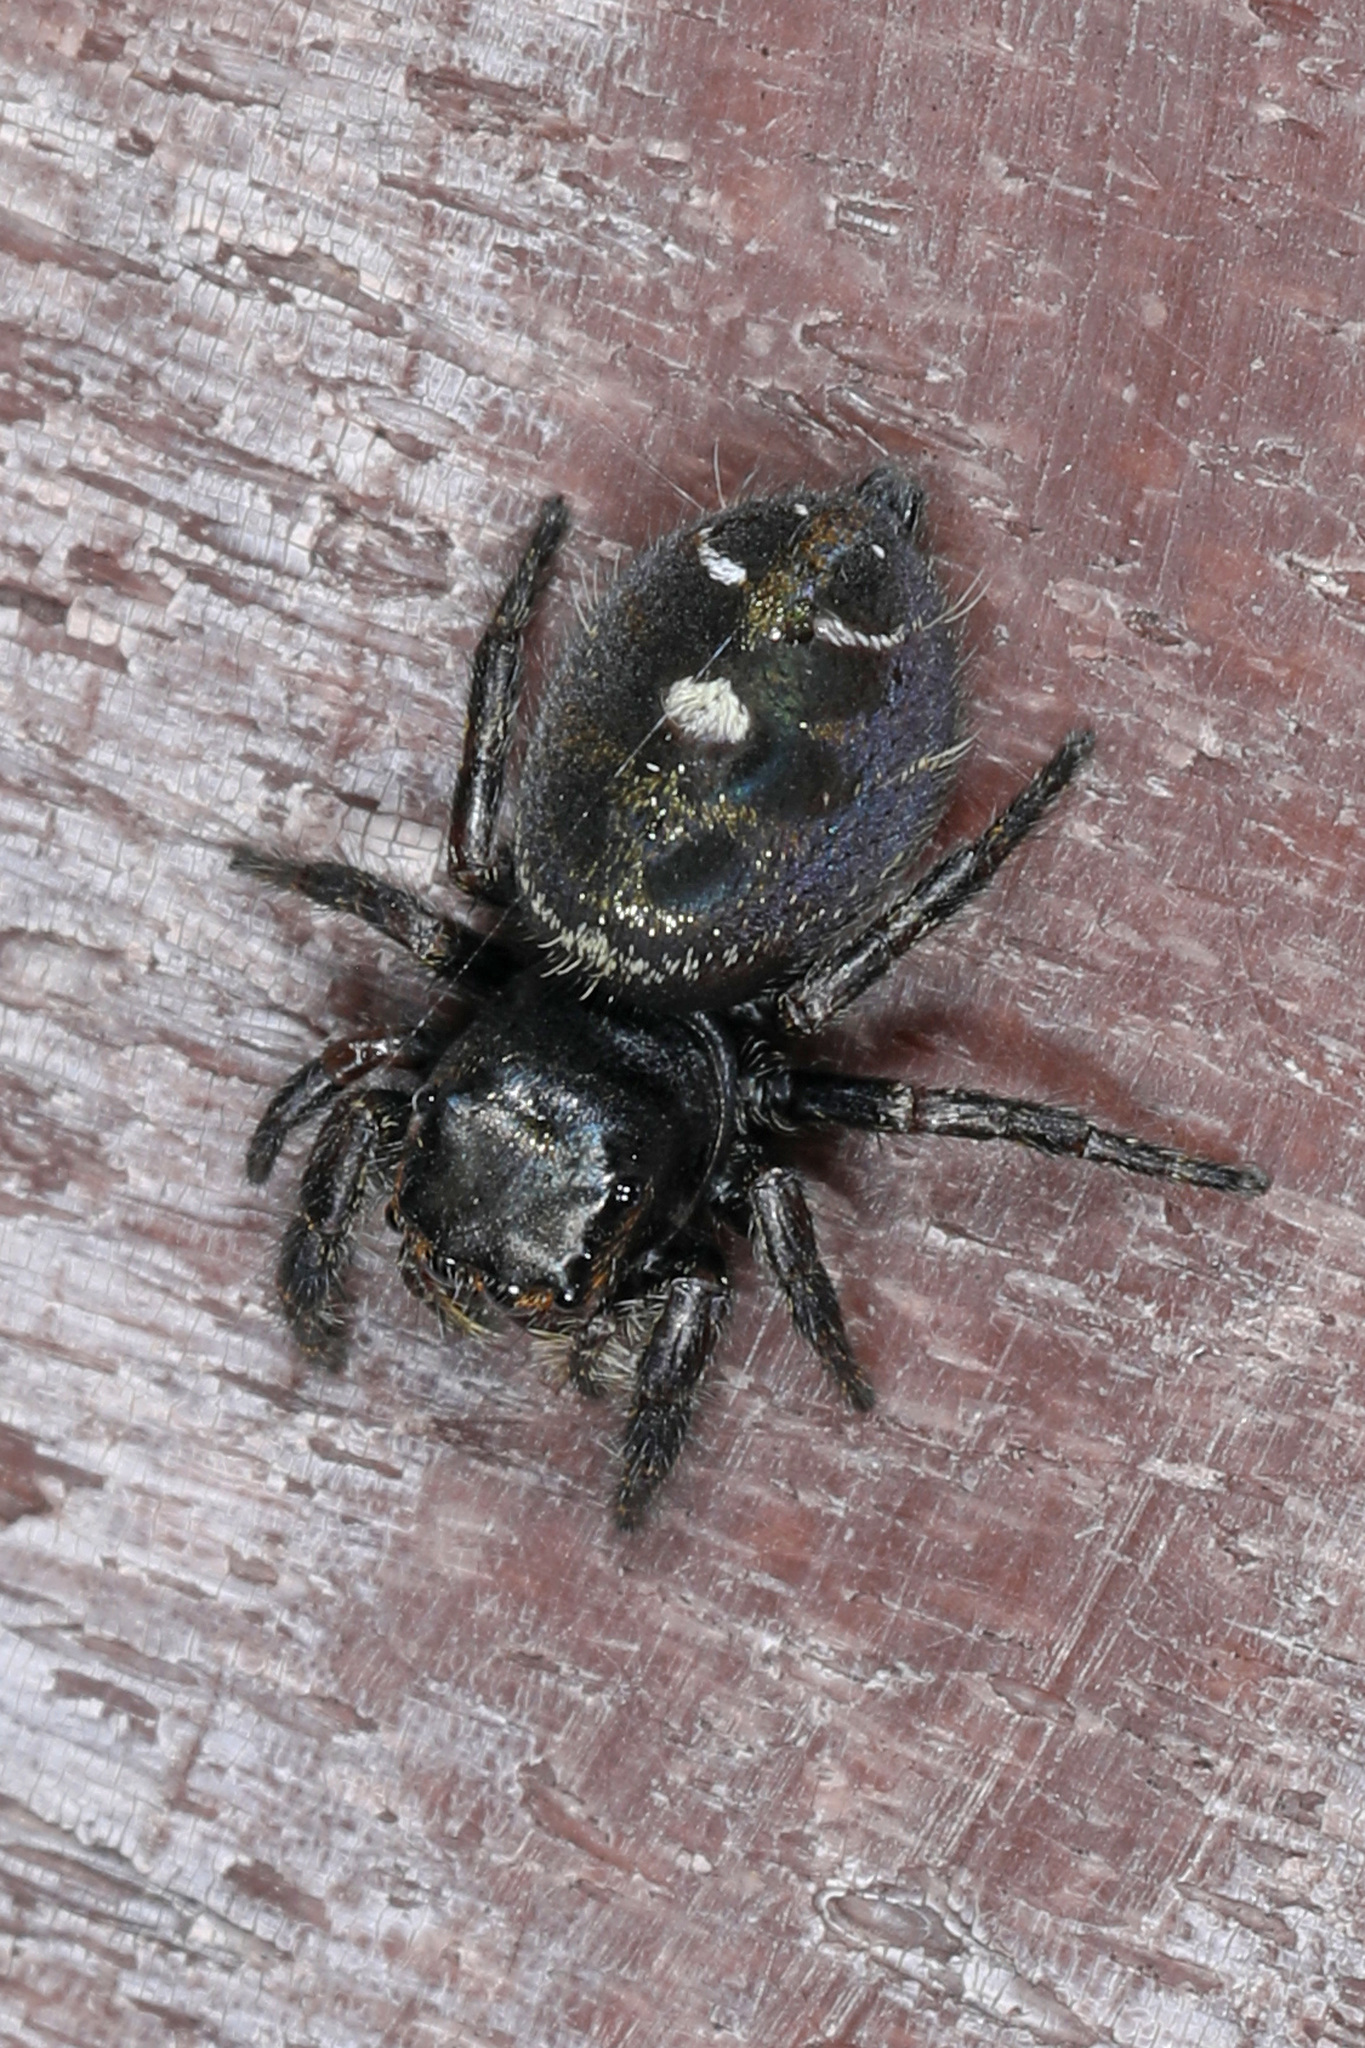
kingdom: Animalia
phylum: Arthropoda
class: Arachnida
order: Araneae
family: Salticidae
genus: Phidippus
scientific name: Phidippus audax
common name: Bold jumper
